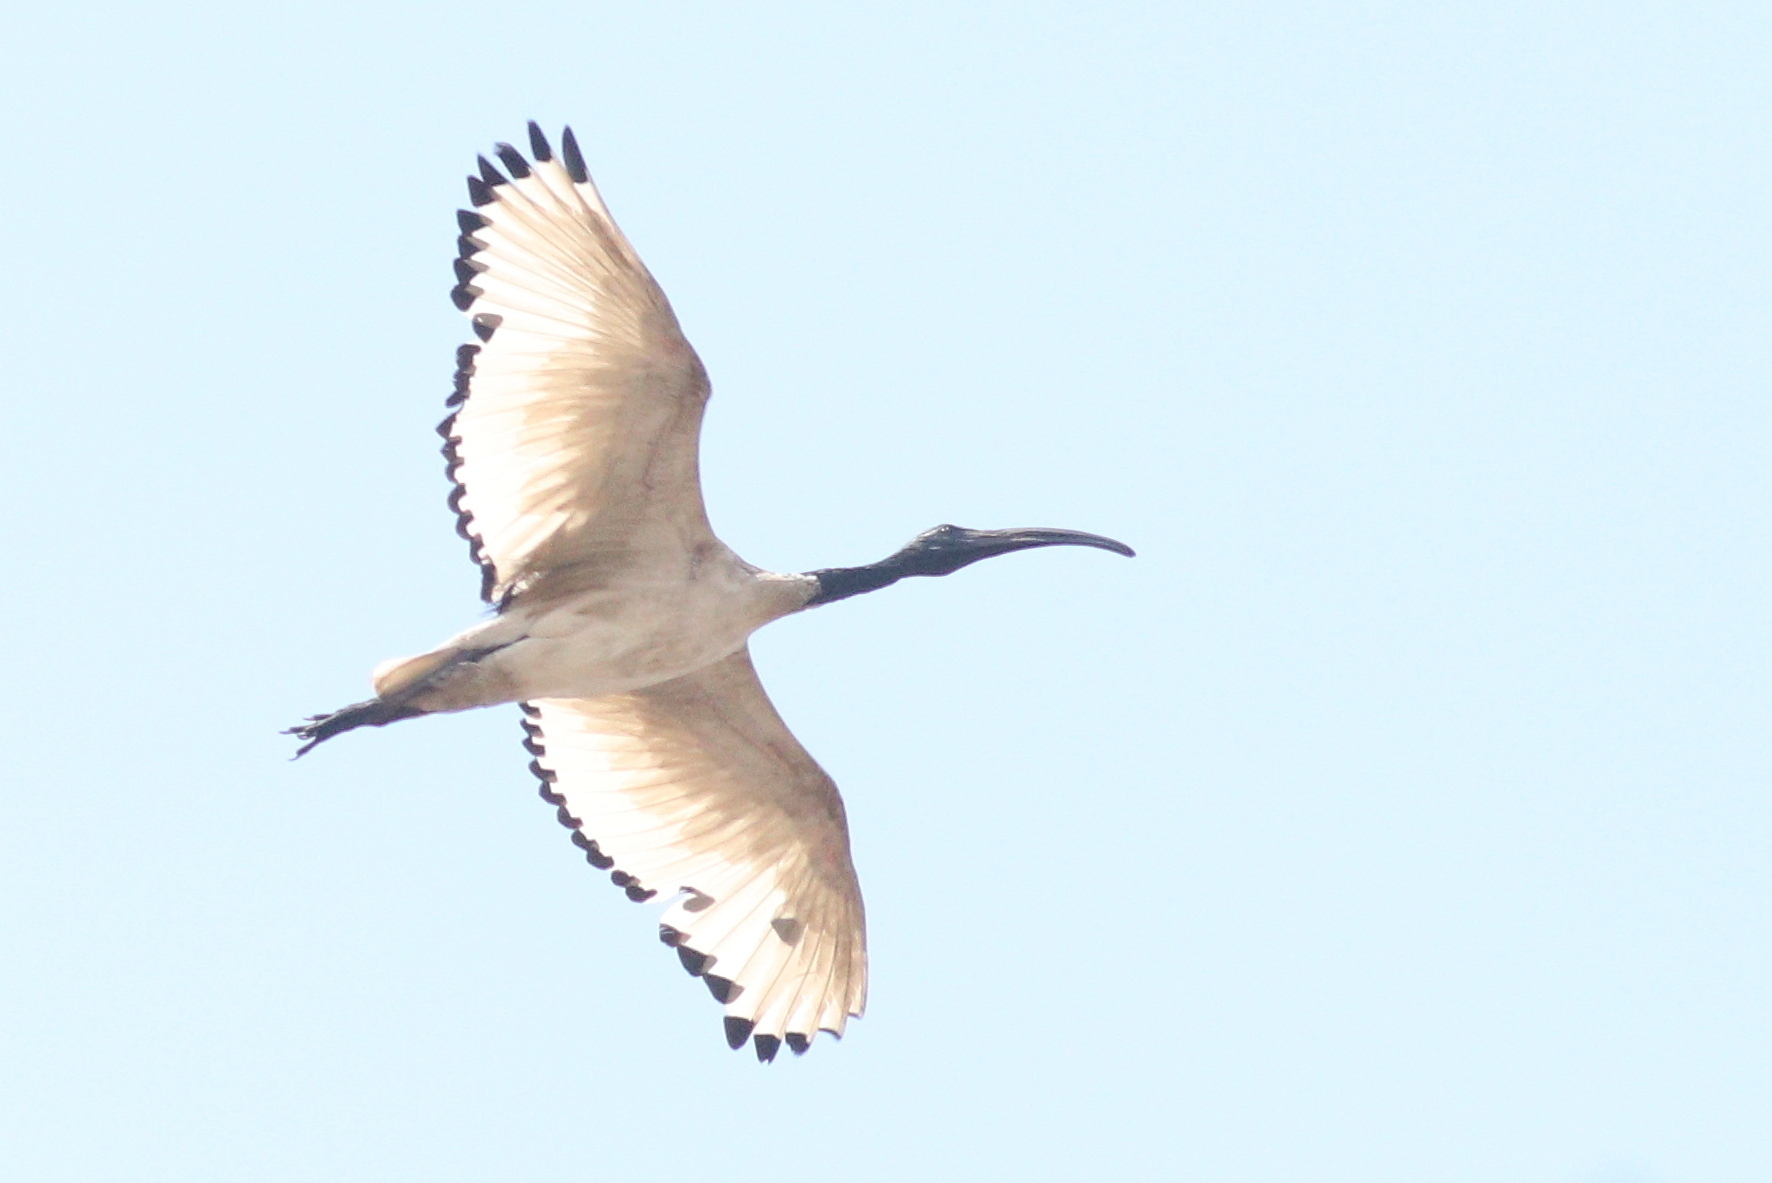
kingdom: Animalia
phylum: Chordata
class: Aves
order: Pelecaniformes
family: Threskiornithidae
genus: Threskiornis
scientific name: Threskiornis aethiopicus
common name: Sacred ibis
